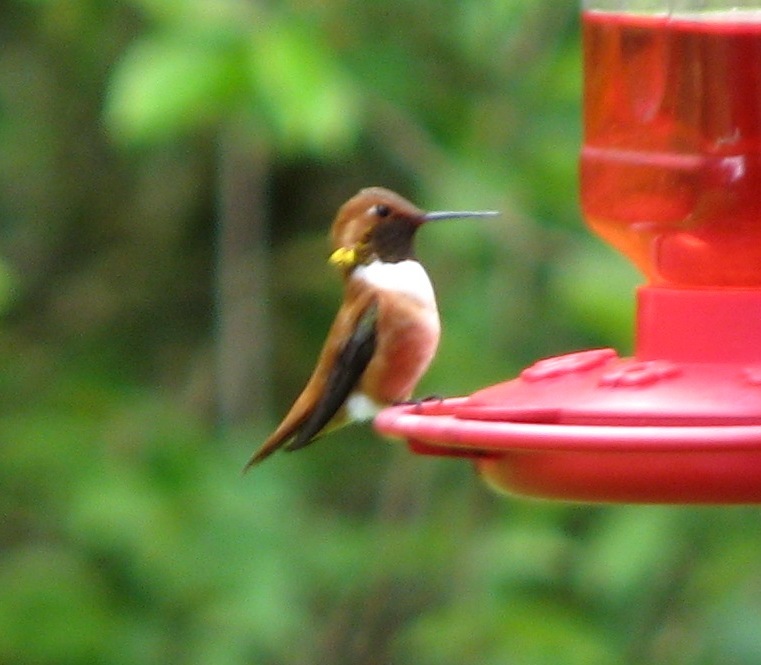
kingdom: Animalia
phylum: Chordata
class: Aves
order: Apodiformes
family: Trochilidae
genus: Selasphorus
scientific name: Selasphorus rufus
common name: Rufous hummingbird
